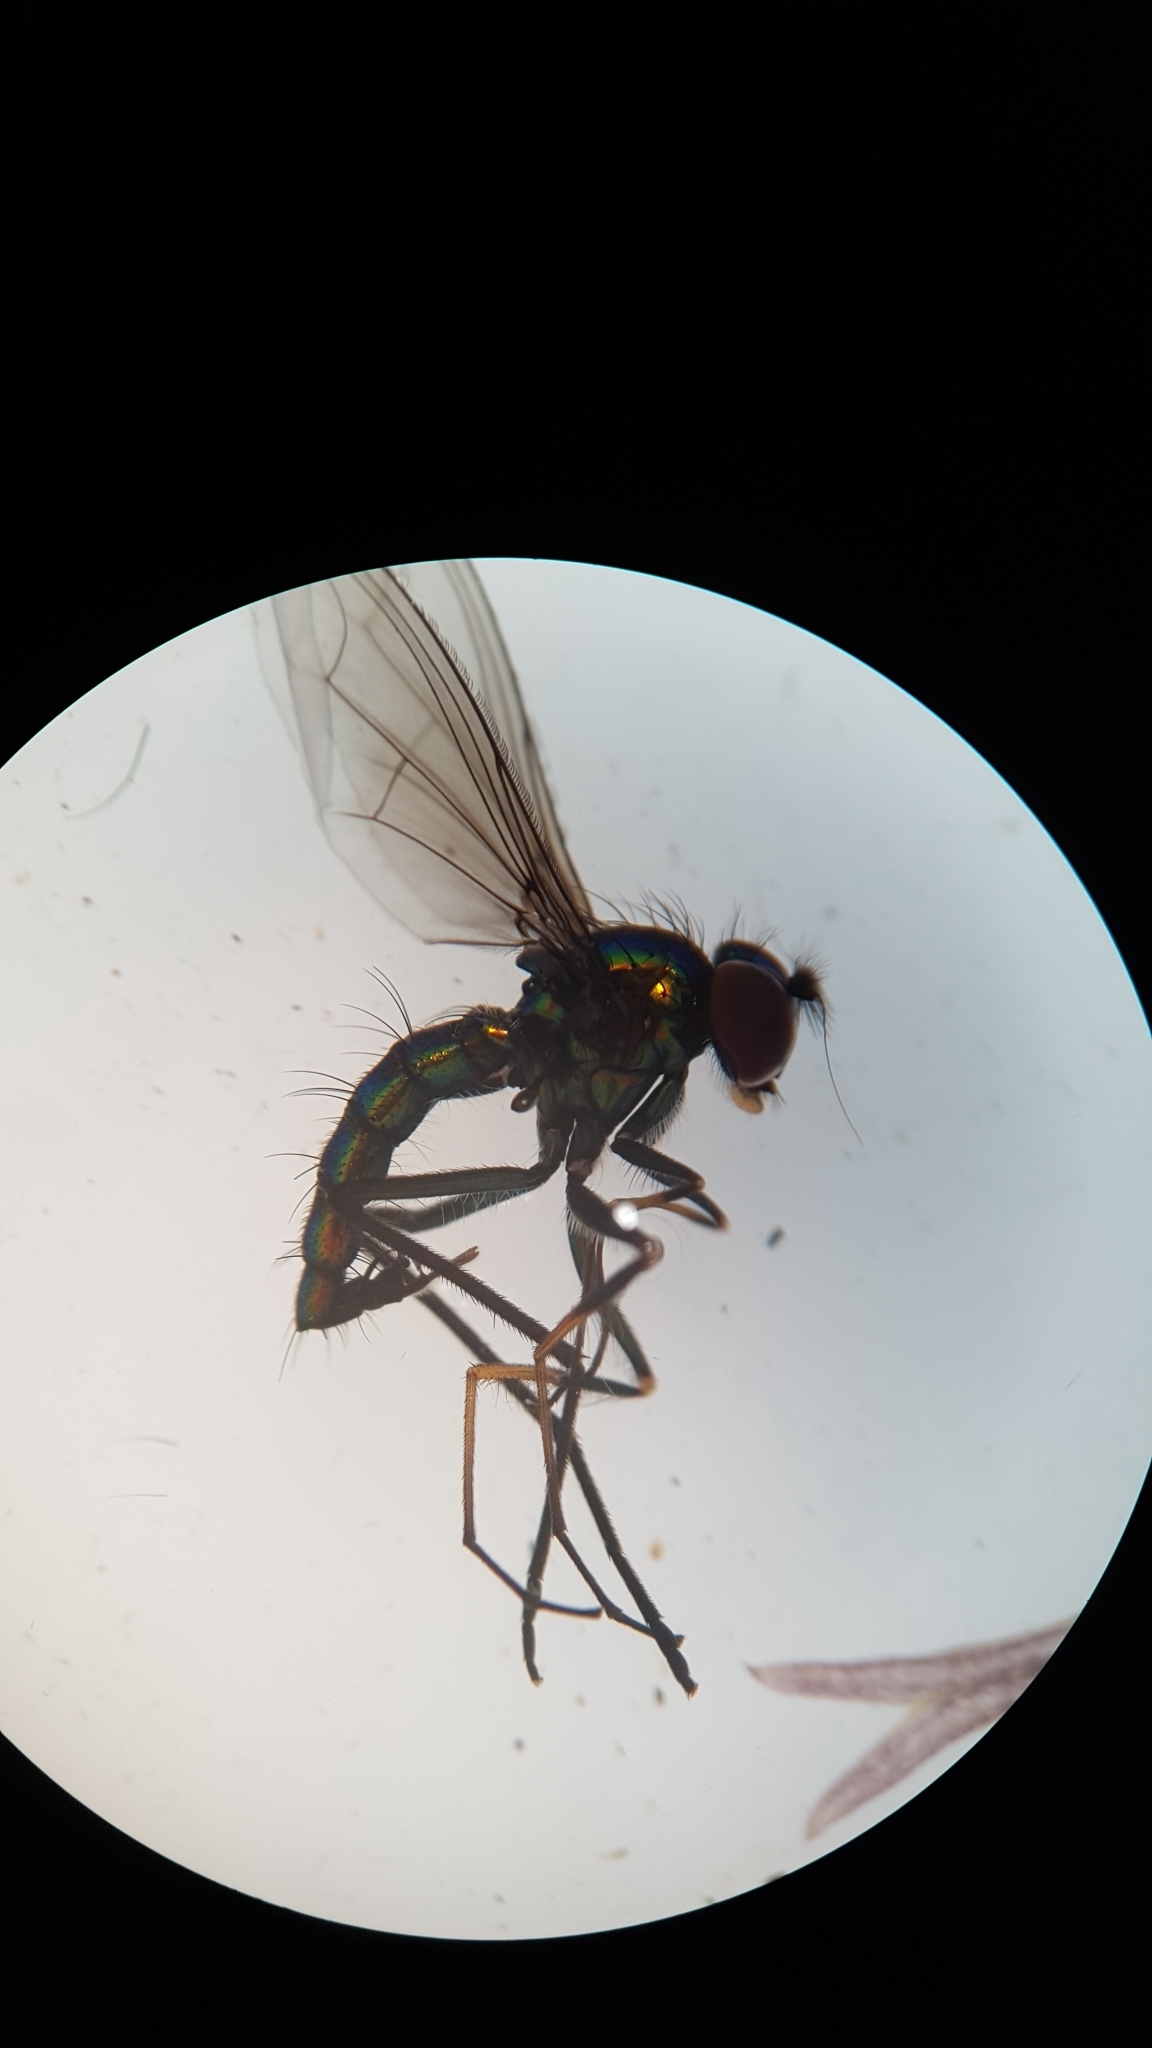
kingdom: Animalia
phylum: Arthropoda
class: Insecta
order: Diptera
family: Dolichopodidae
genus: Parentia
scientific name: Parentia johnsi
